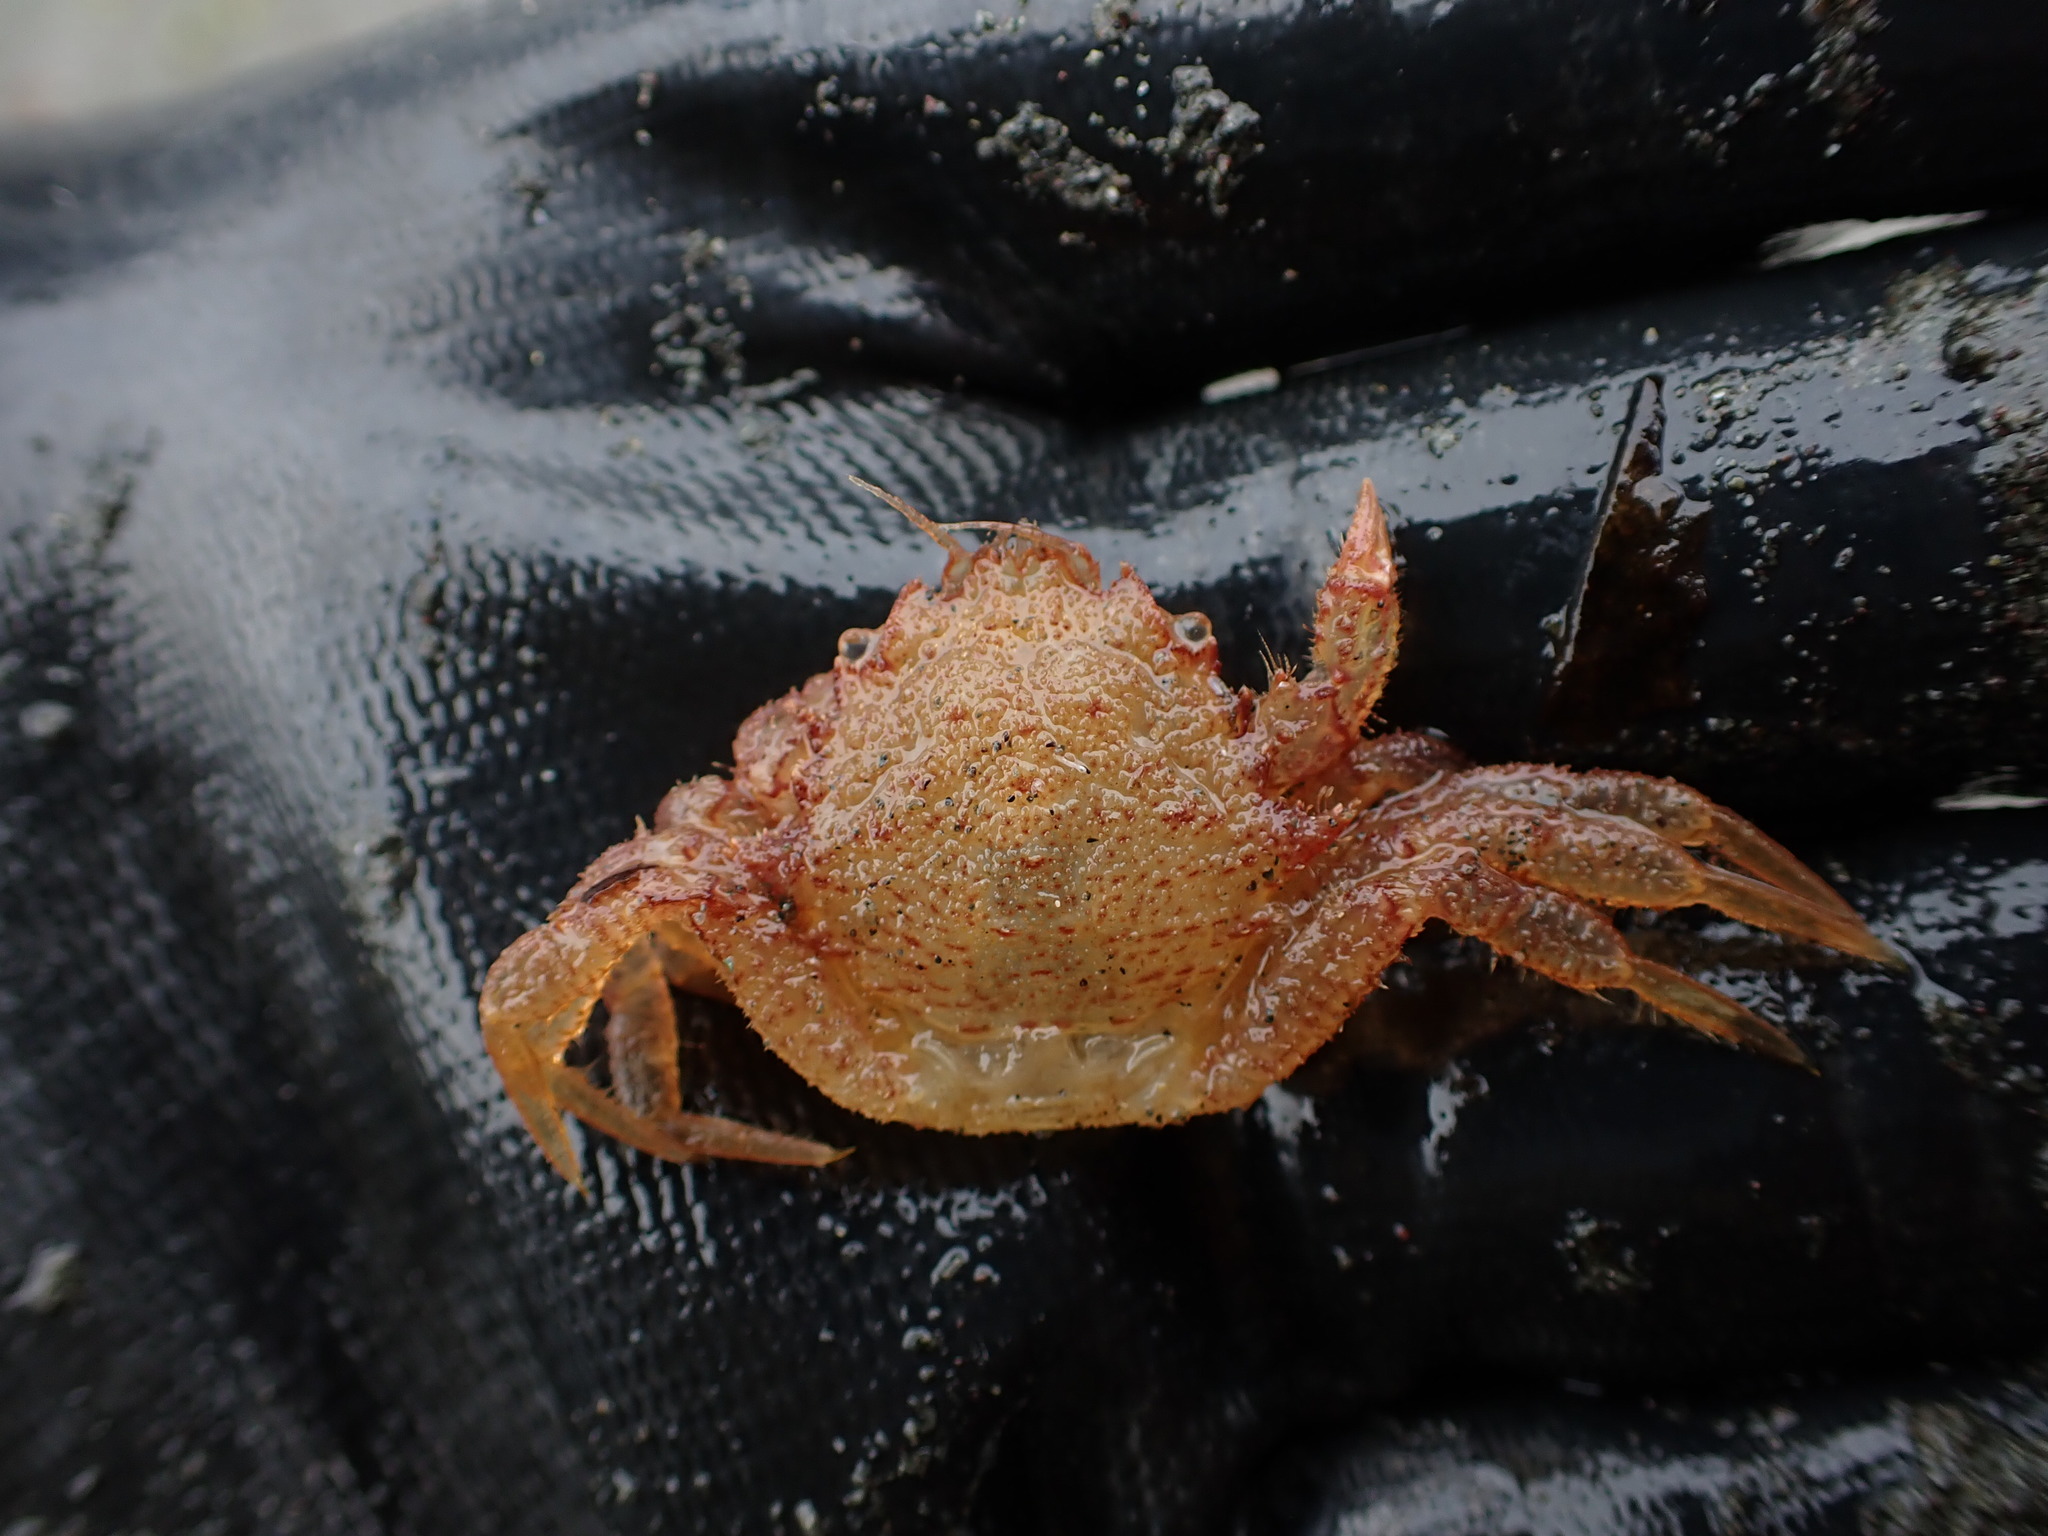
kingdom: Animalia
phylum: Arthropoda
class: Malacostraca
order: Decapoda
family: Cheiragonidae
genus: Telmessus
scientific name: Telmessus cheiragonus
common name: Helmet crab
